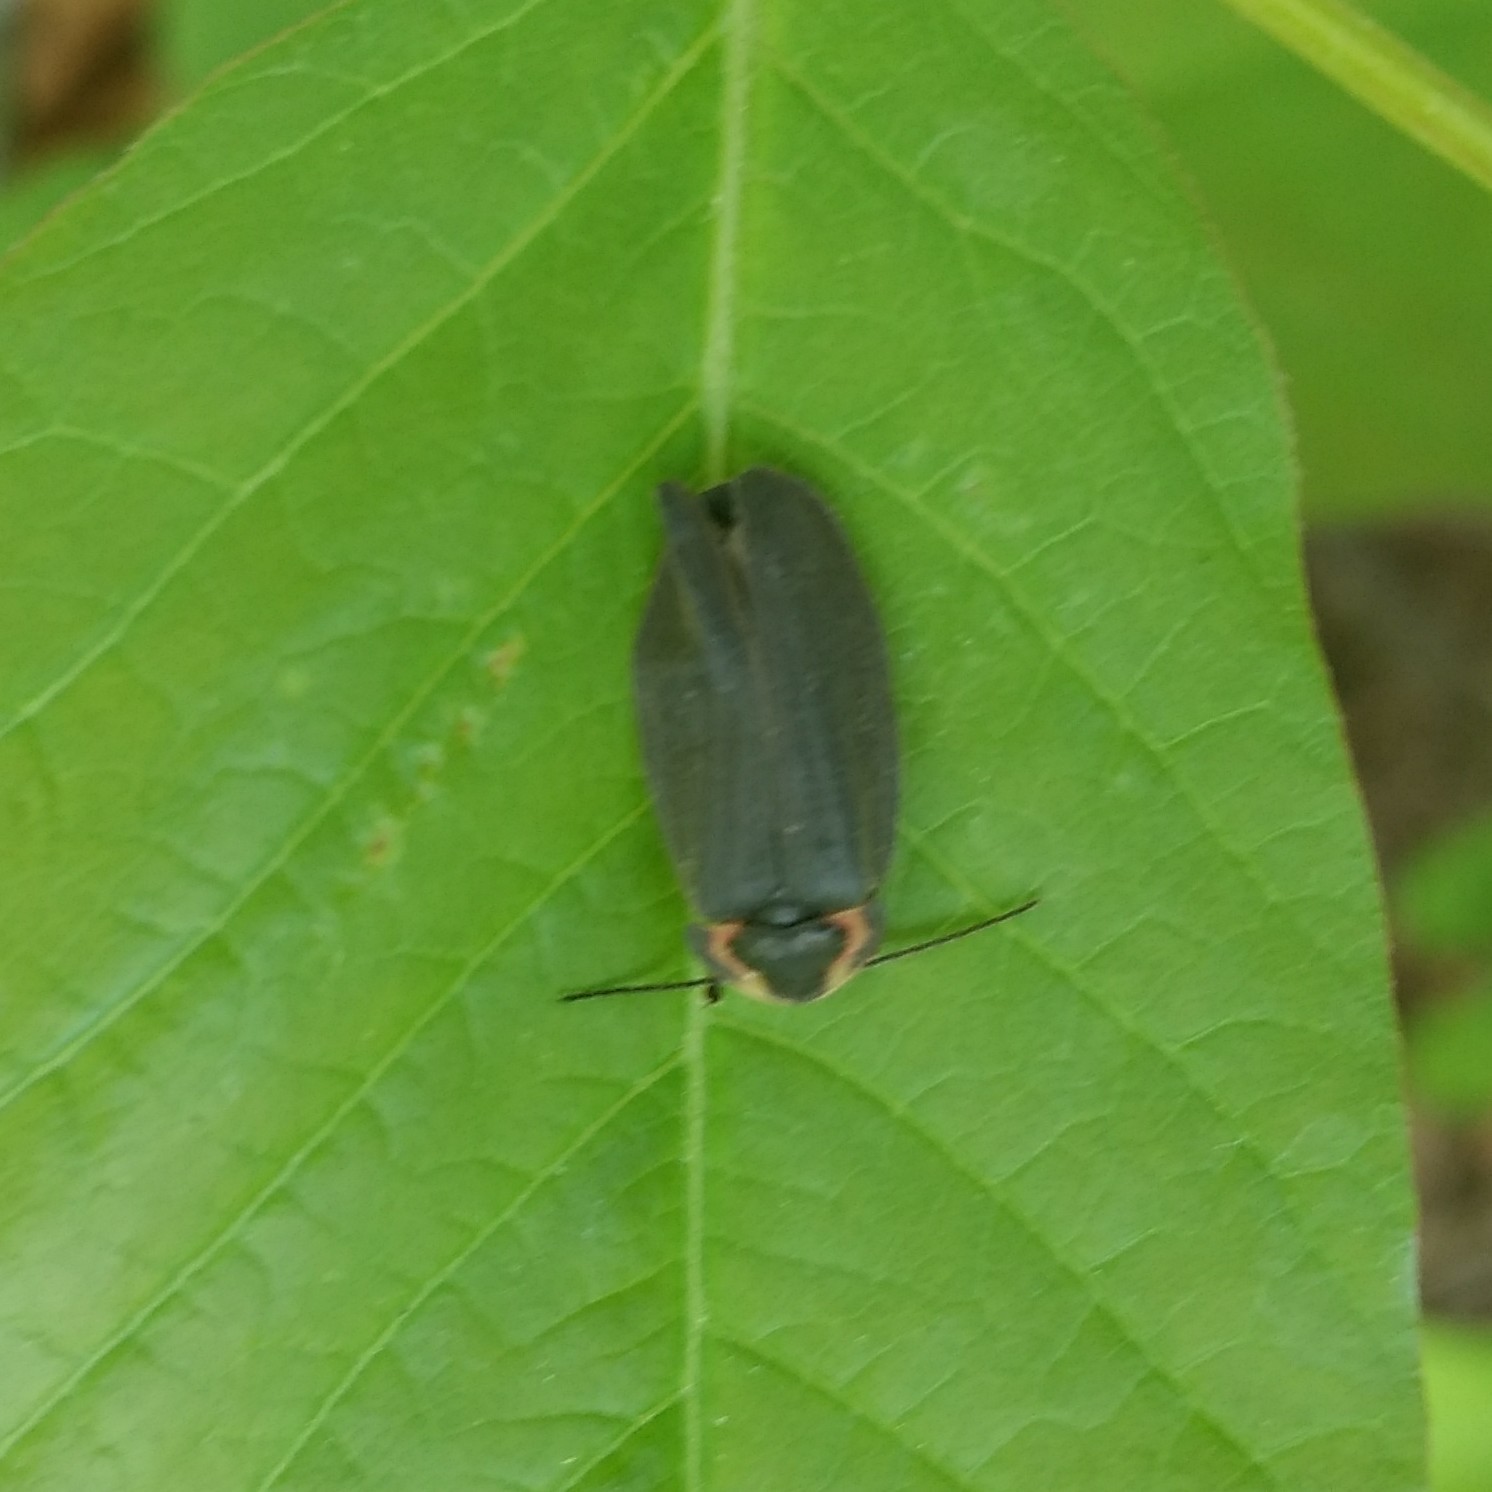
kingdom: Animalia
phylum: Arthropoda
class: Insecta
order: Coleoptera
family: Lampyridae
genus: Photinus
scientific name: Photinus corrusca
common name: Winter firefly
